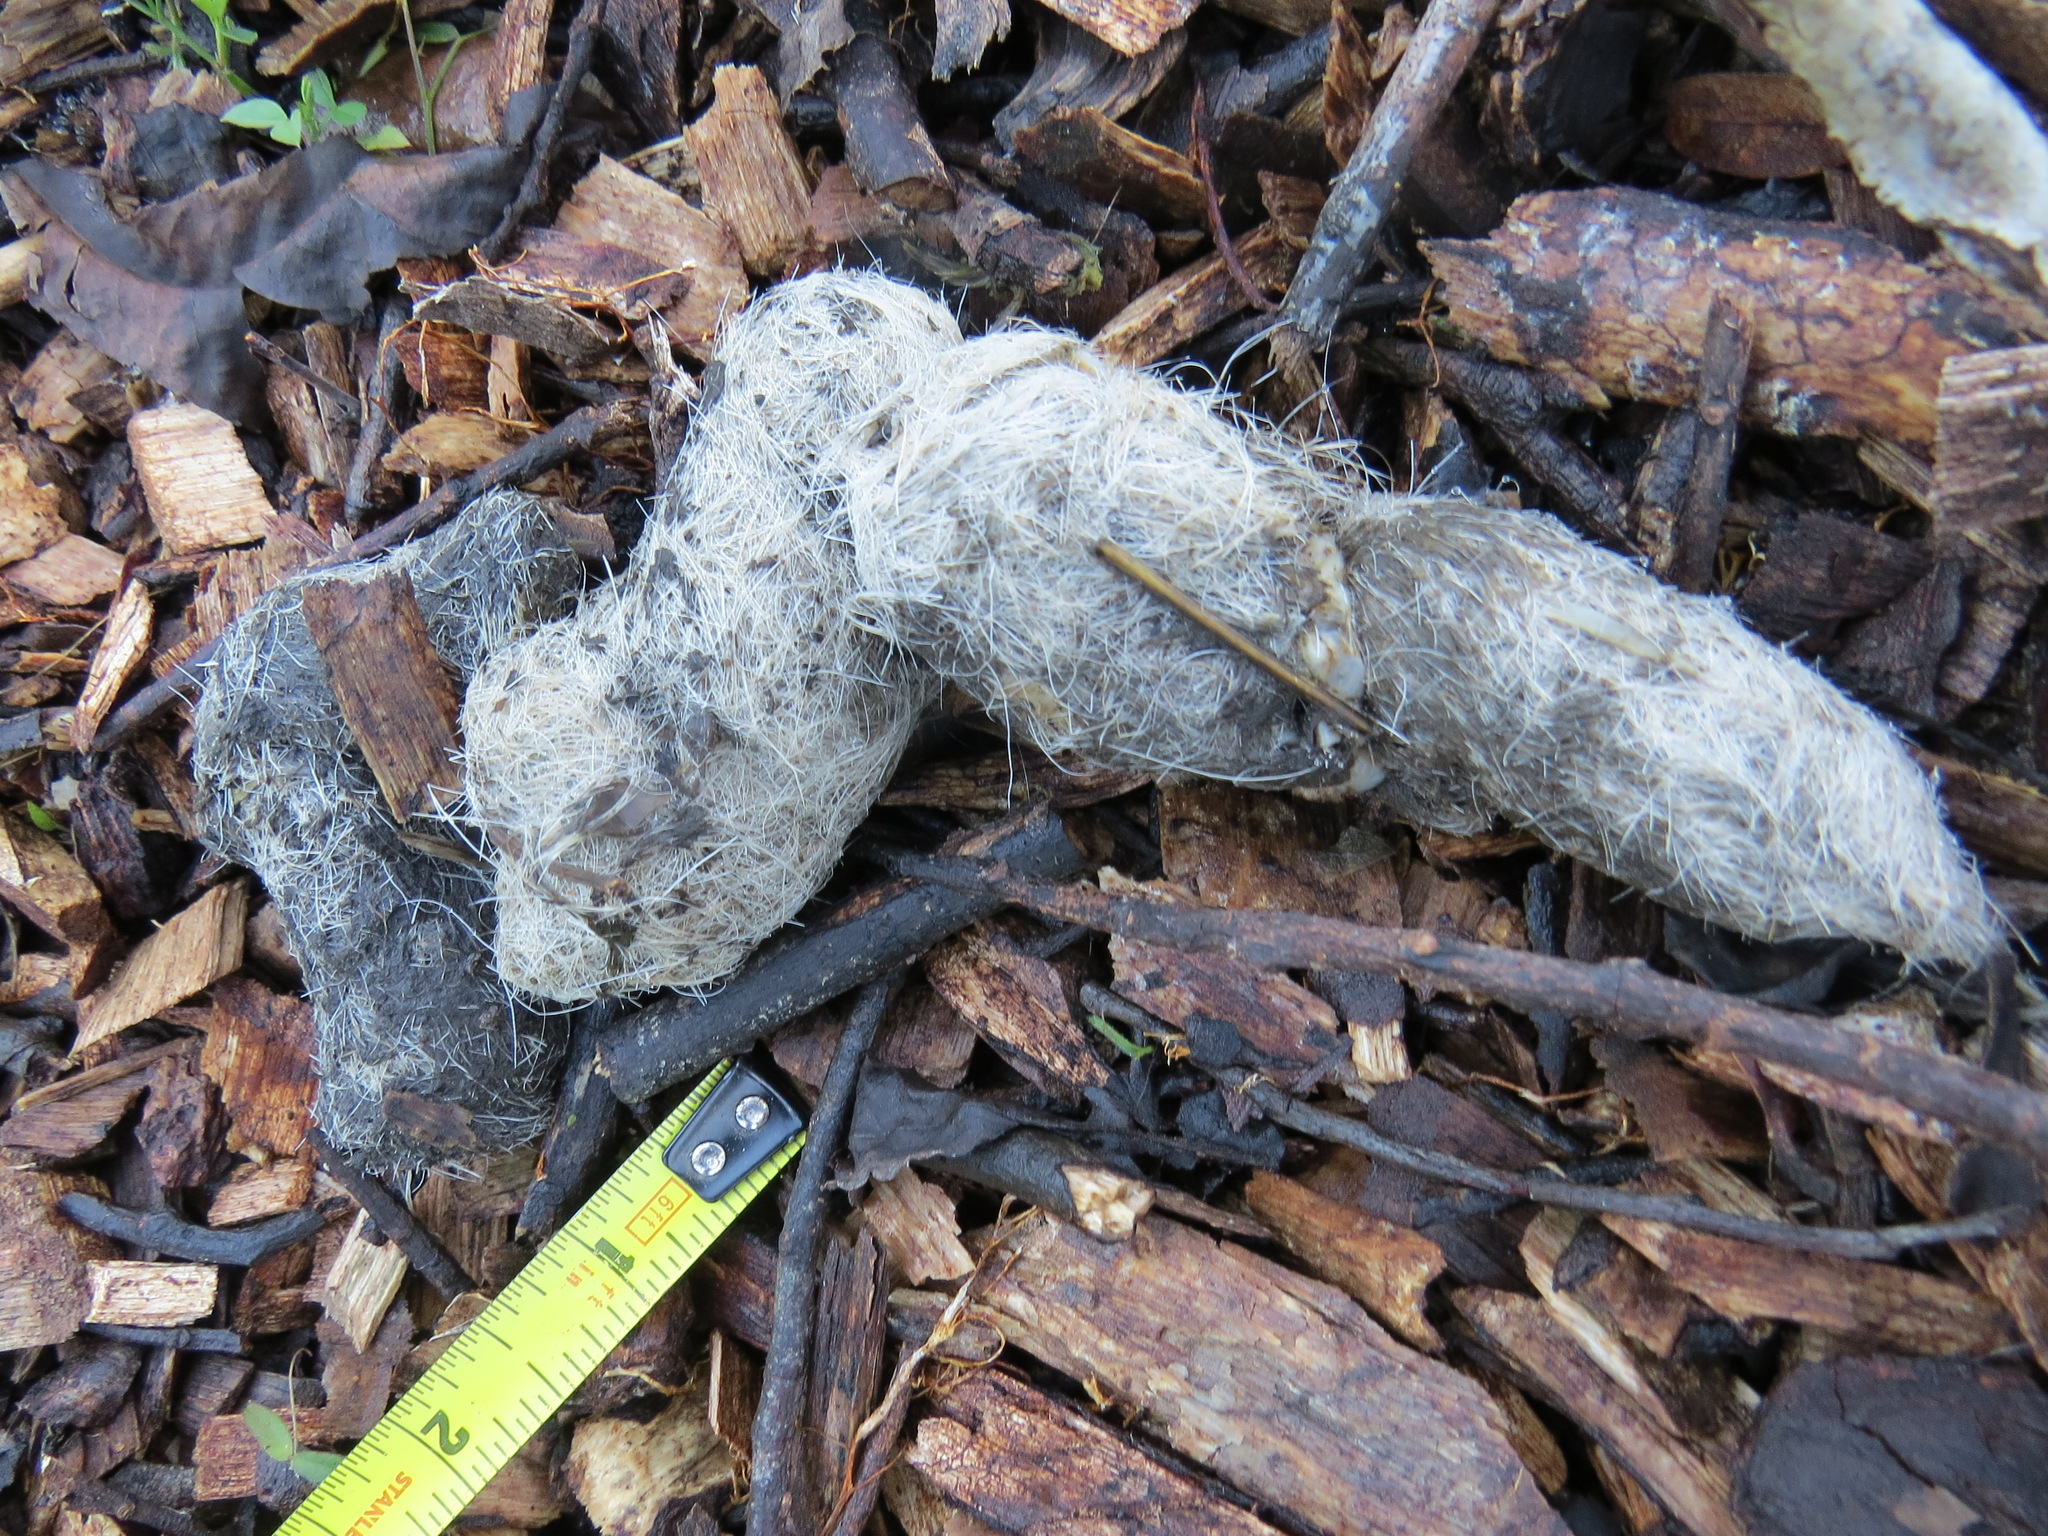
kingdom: Animalia
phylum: Chordata
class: Mammalia
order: Carnivora
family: Felidae
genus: Puma
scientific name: Puma concolor
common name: Puma
